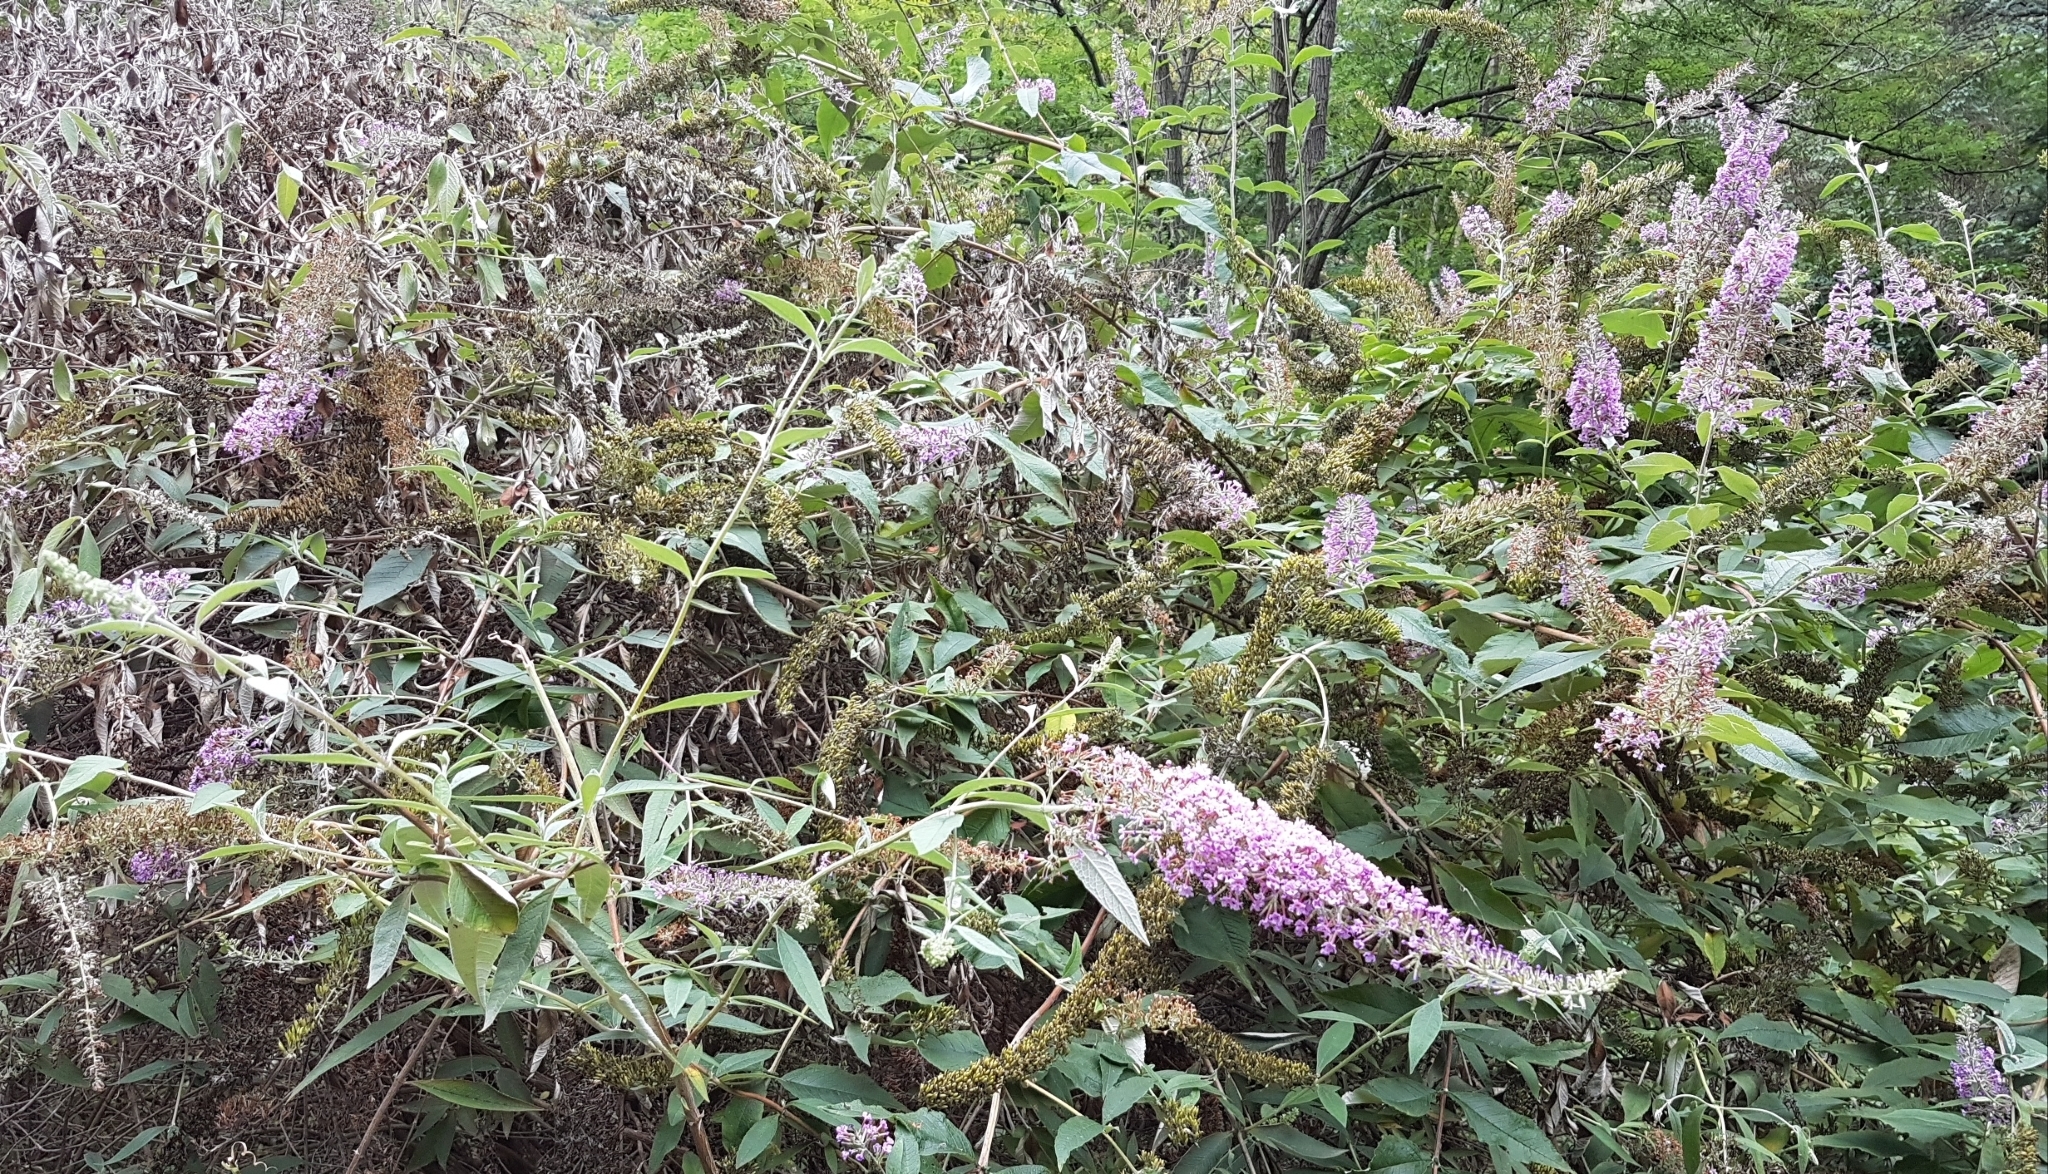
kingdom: Plantae
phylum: Tracheophyta
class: Magnoliopsida
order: Lamiales
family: Scrophulariaceae
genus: Buddleja
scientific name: Buddleja davidii
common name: Butterfly-bush
